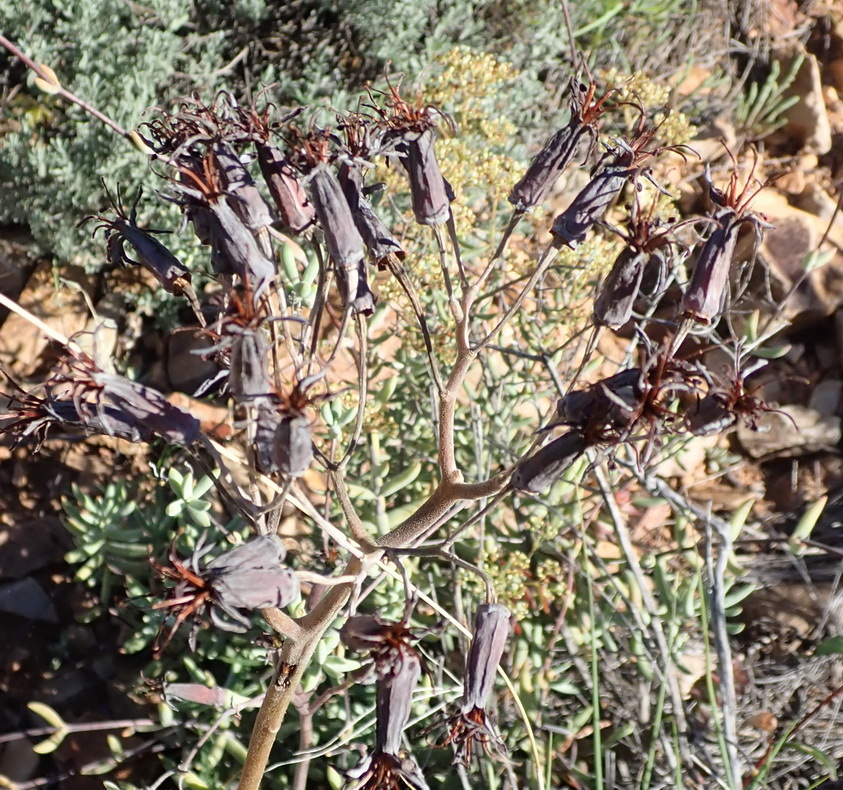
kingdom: Plantae
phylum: Tracheophyta
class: Magnoliopsida
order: Saxifragales
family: Crassulaceae
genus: Cotyledon
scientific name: Cotyledon orbiculata
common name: Pig's ear
